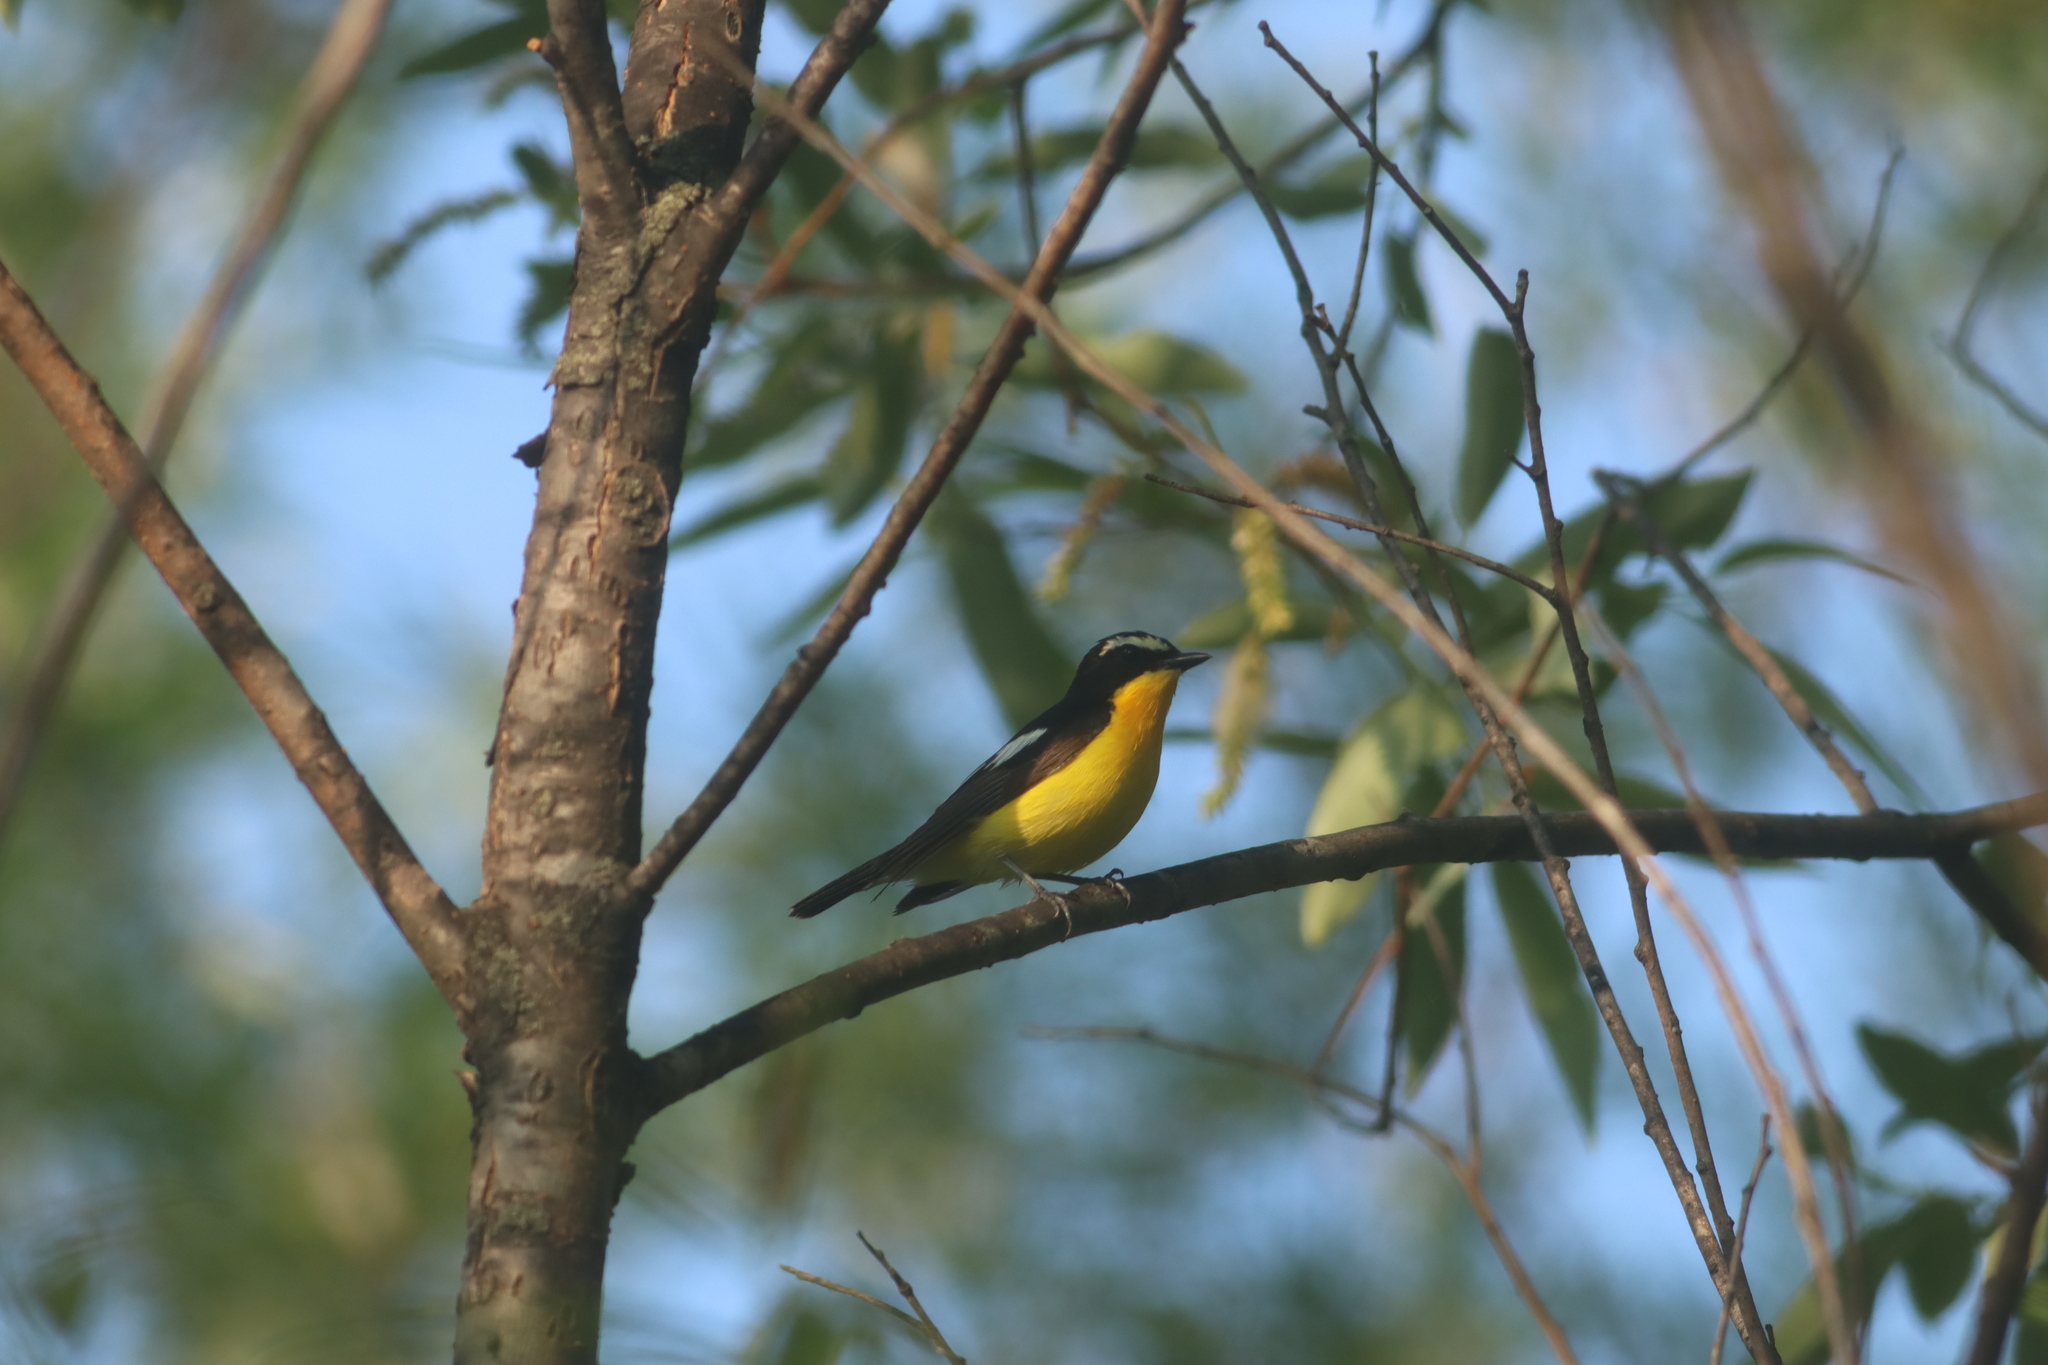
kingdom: Animalia
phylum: Chordata
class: Aves
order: Passeriformes
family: Muscicapidae
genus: Ficedula
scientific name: Ficedula zanthopygia
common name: Yellow-rumped flycatcher
